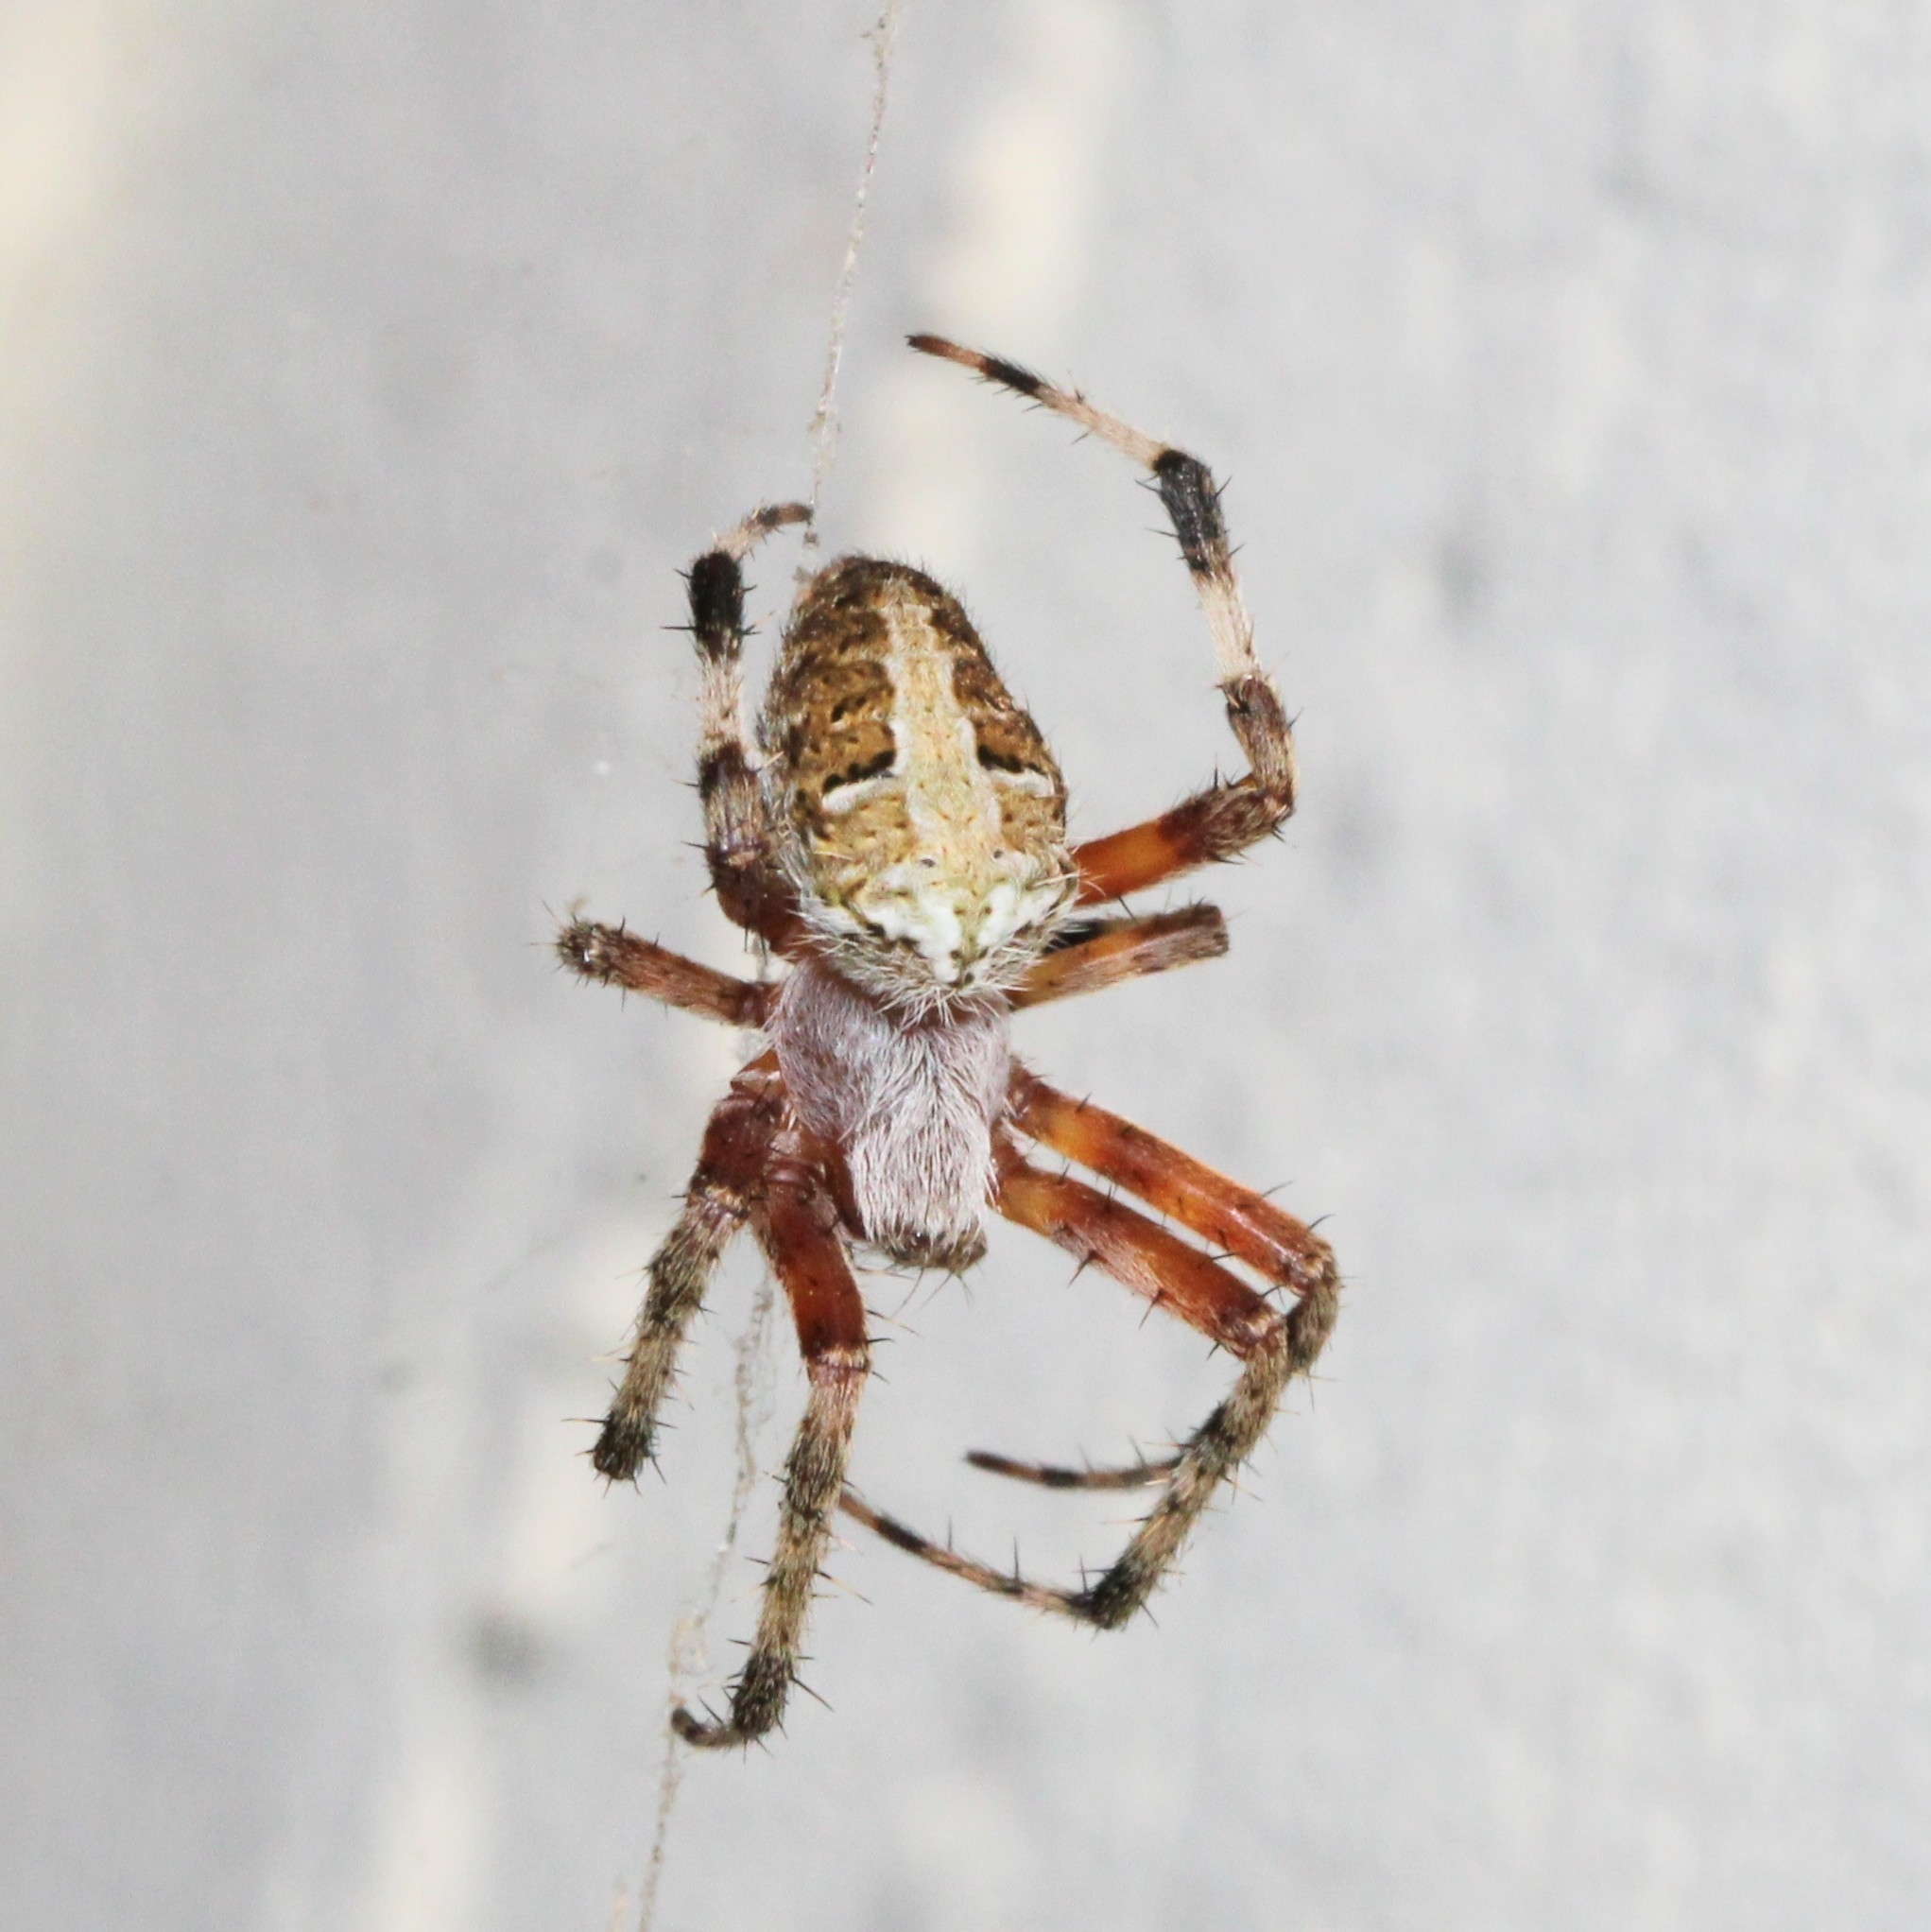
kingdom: Animalia
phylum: Arthropoda
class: Arachnida
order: Araneae
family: Araneidae
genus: Neoscona
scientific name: Neoscona domiciliorum
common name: Red-femured spotted orbweaver
